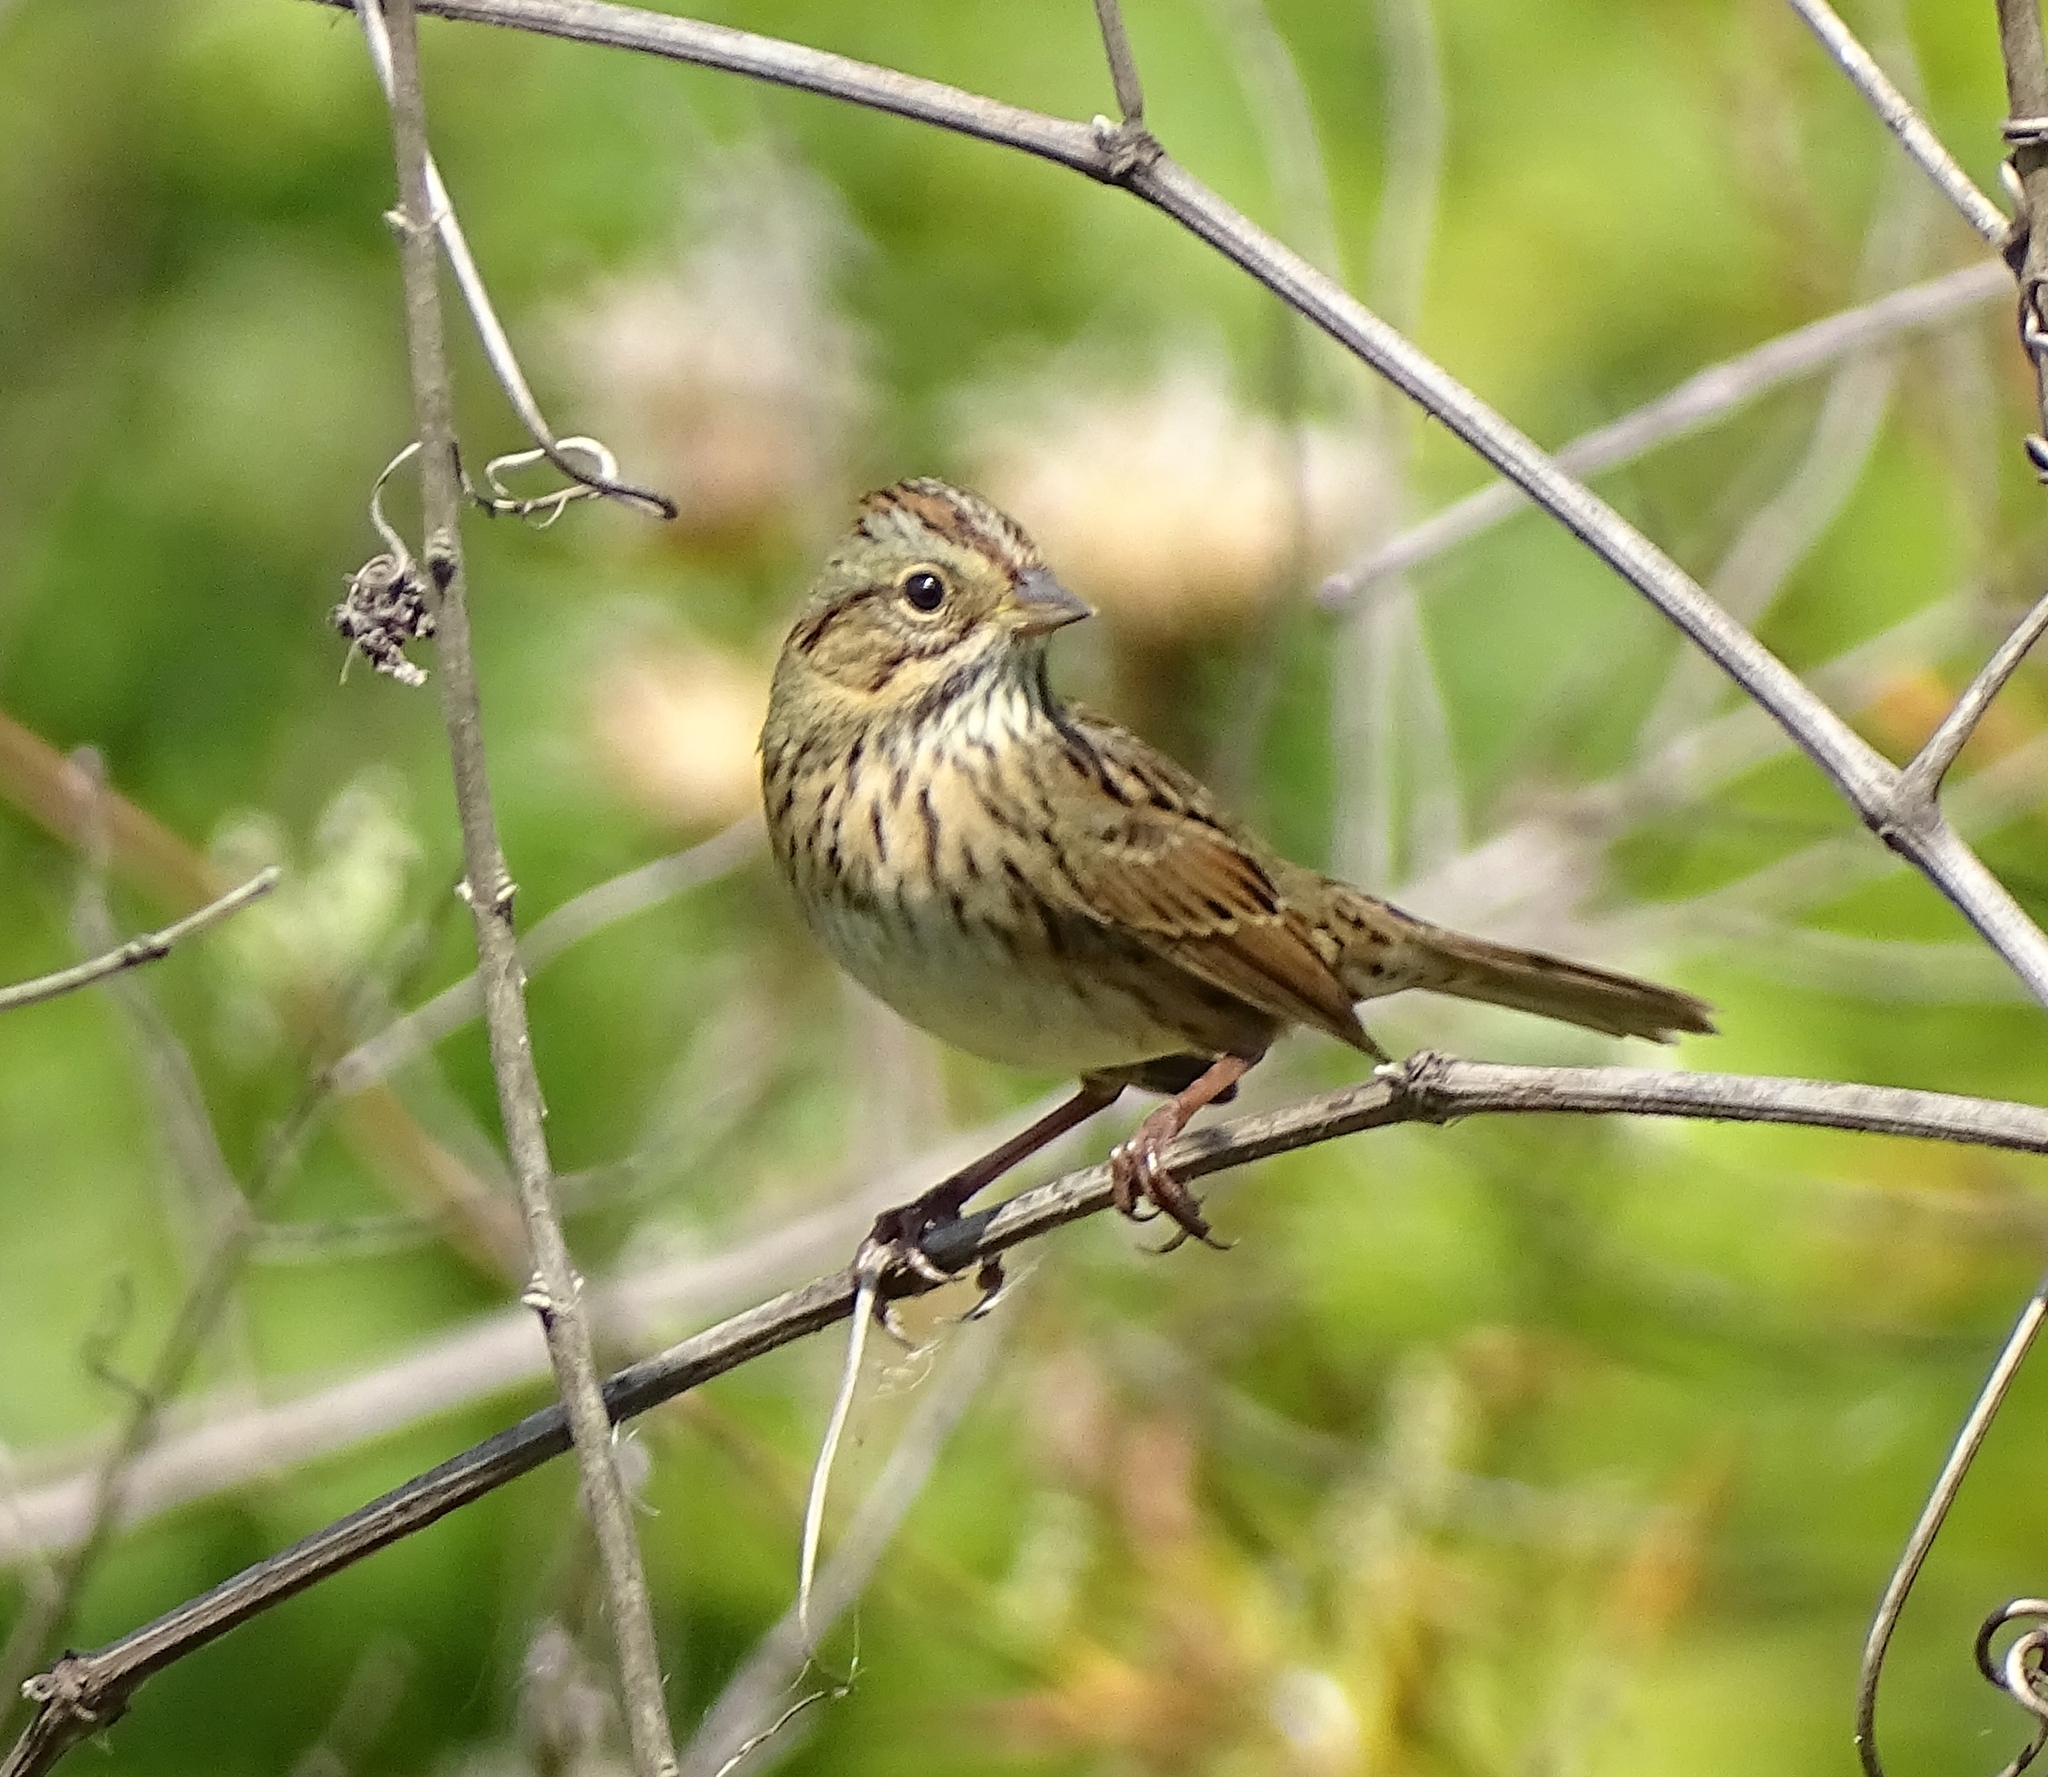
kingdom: Animalia
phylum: Chordata
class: Aves
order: Passeriformes
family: Passerellidae
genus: Melospiza
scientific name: Melospiza lincolnii
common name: Lincoln's sparrow
